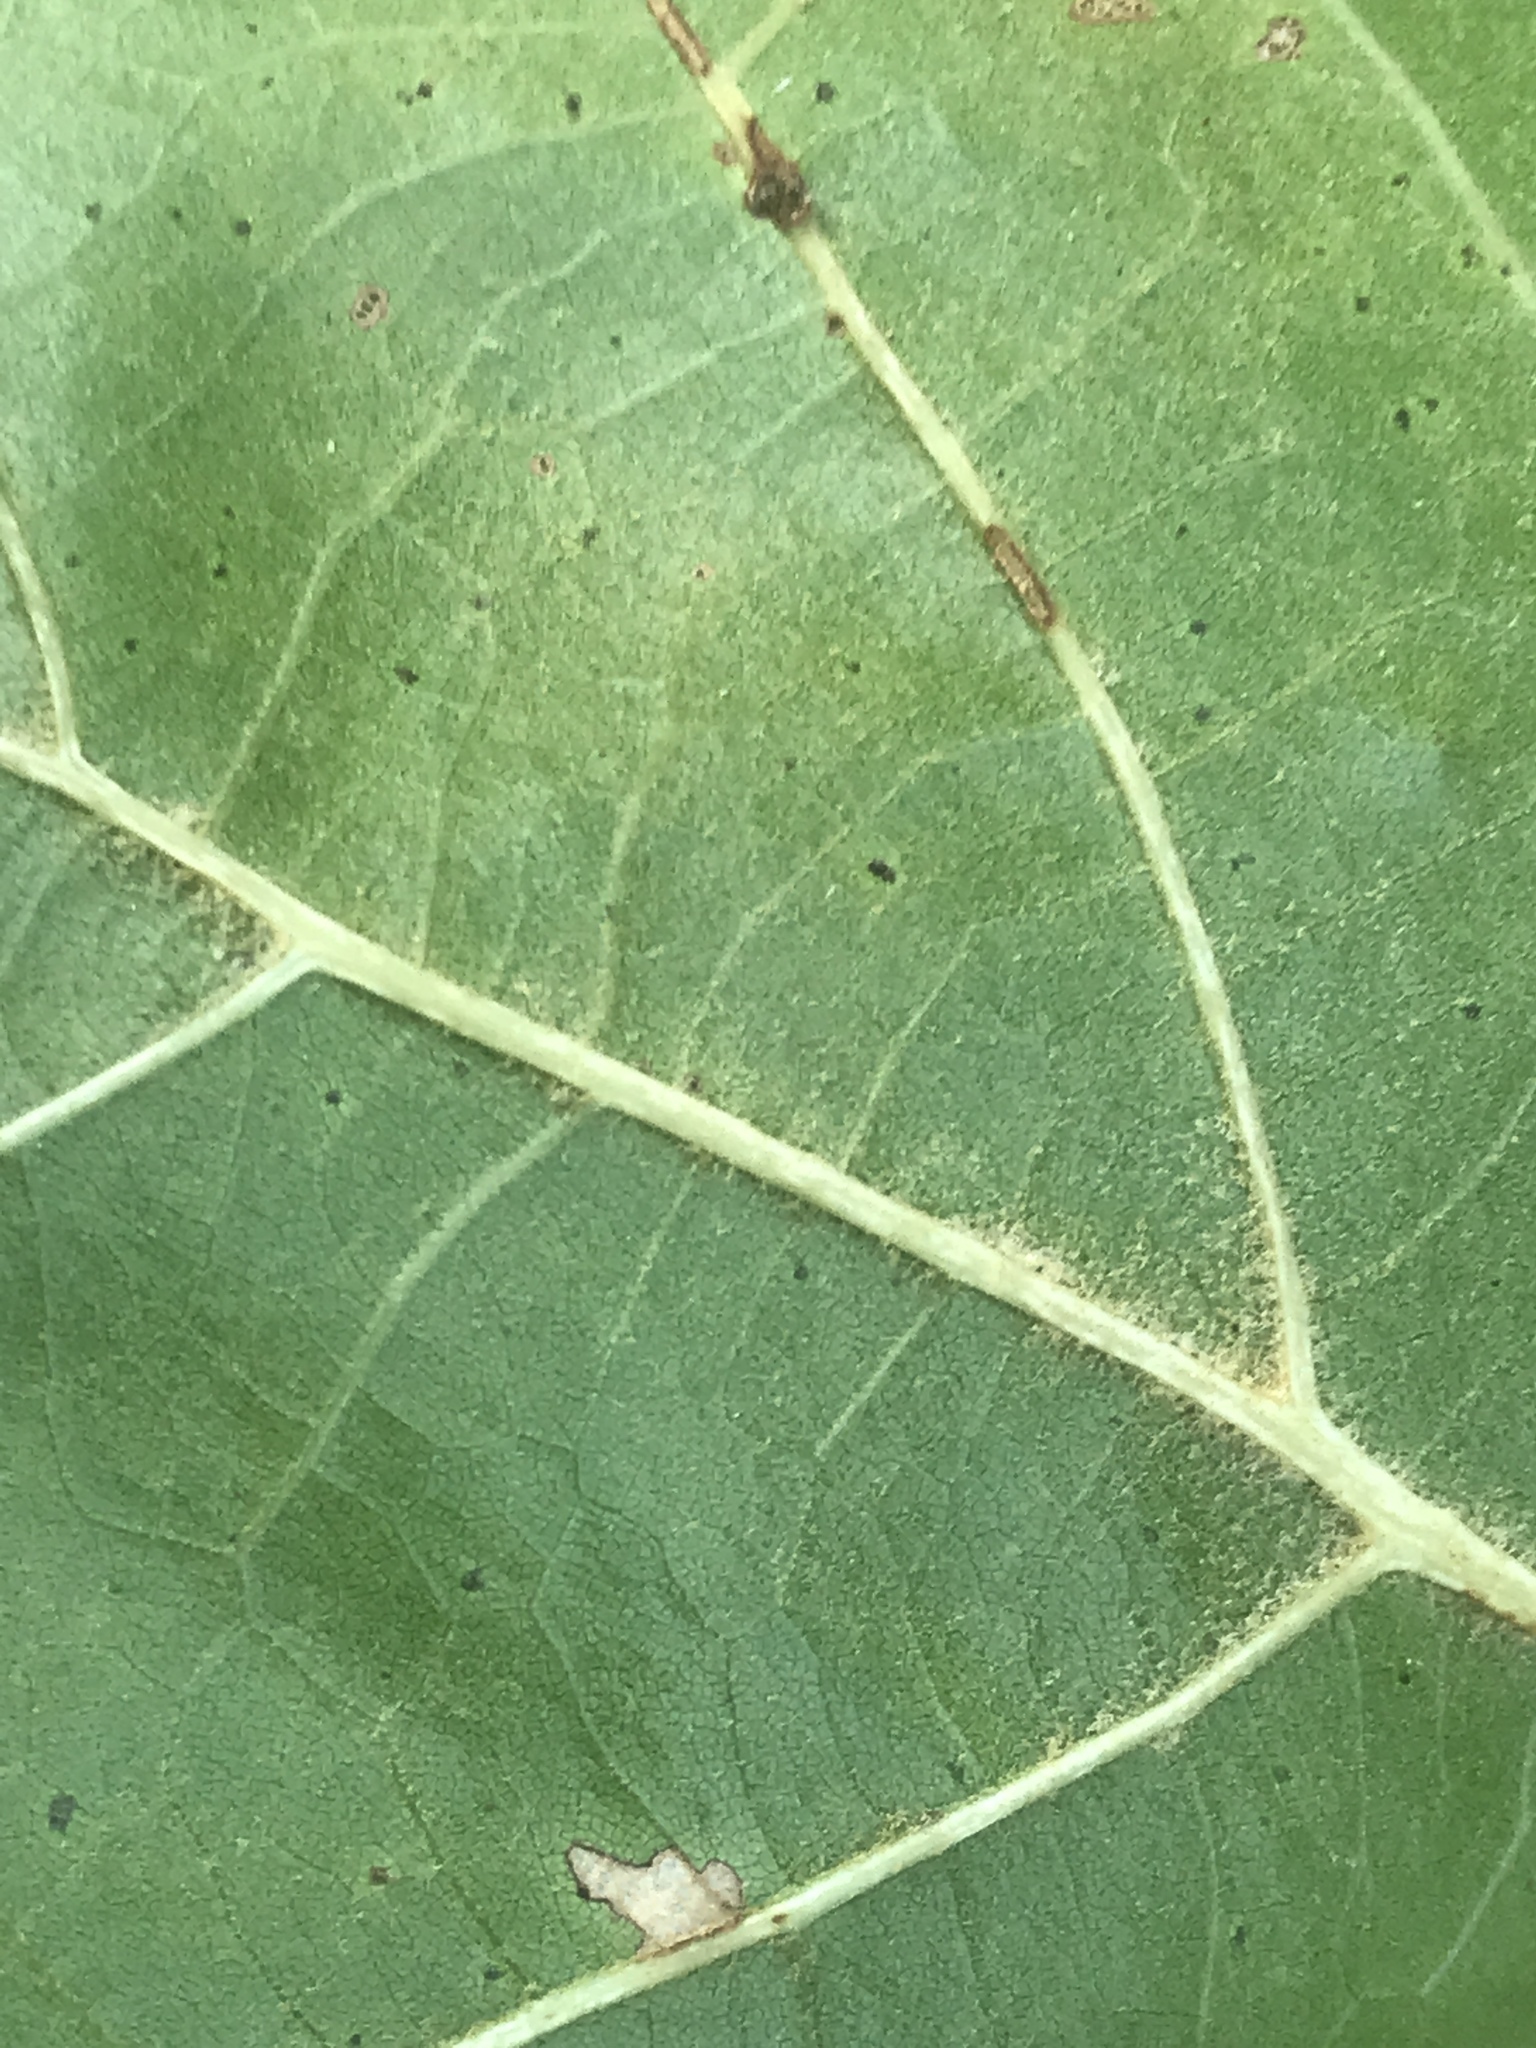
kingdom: Plantae
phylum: Tracheophyta
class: Magnoliopsida
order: Fagales
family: Fagaceae
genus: Quercus
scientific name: Quercus marilandica
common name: Blackjack oak
